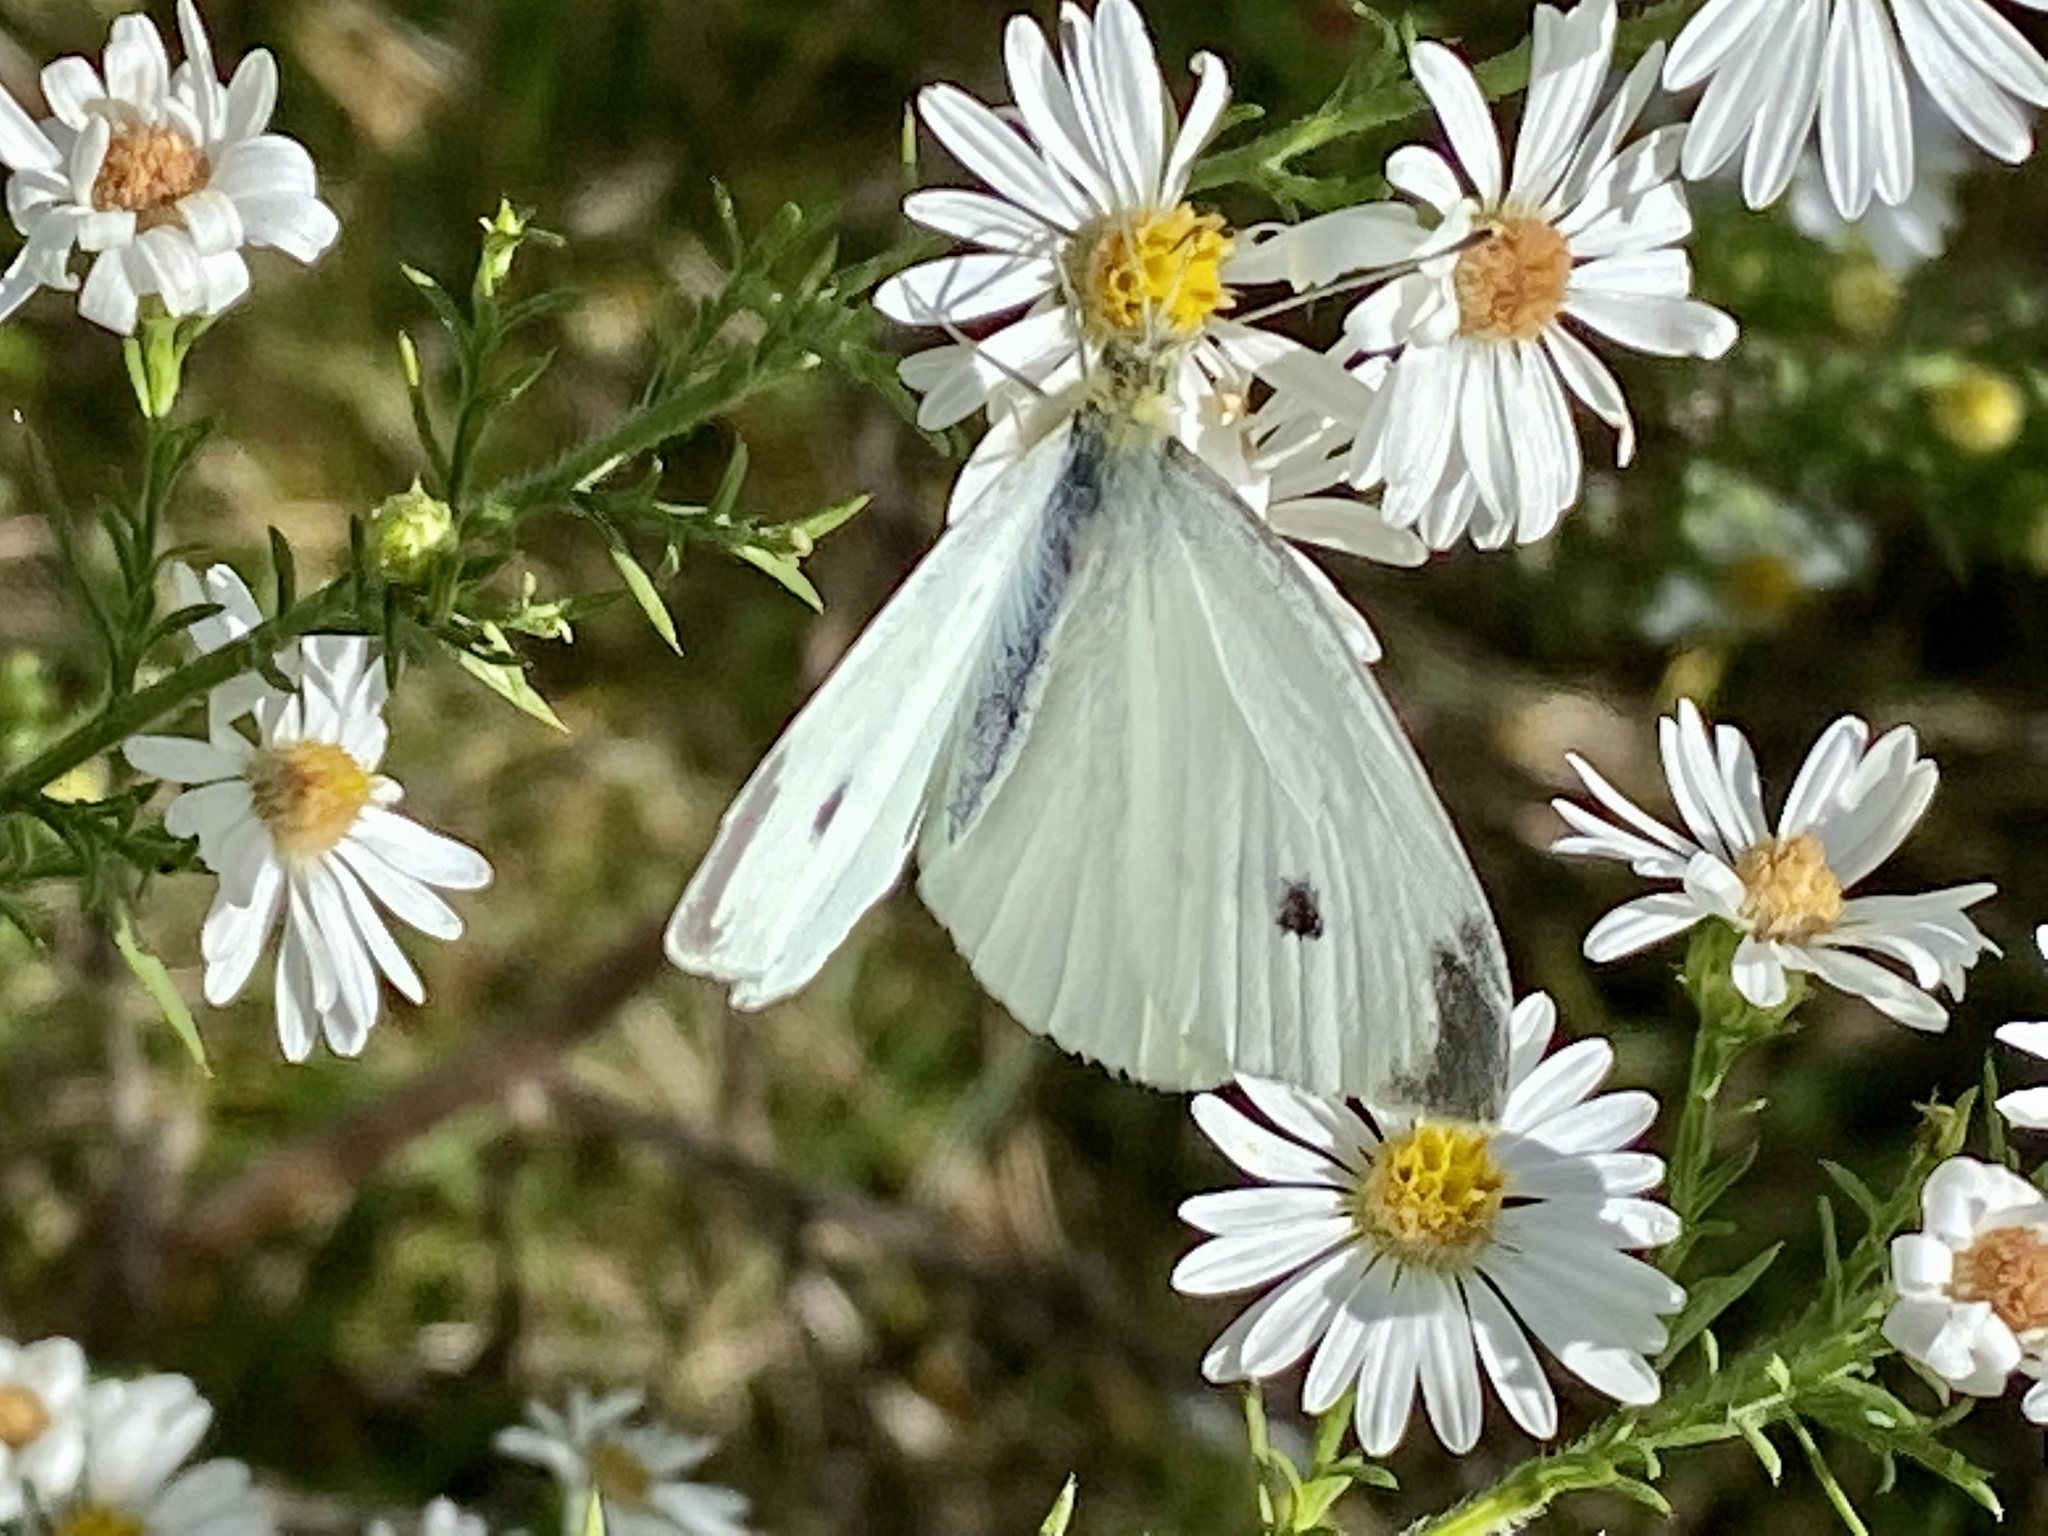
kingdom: Animalia
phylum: Arthropoda
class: Insecta
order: Lepidoptera
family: Pieridae
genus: Pieris
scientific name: Pieris rapae
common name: Small white
